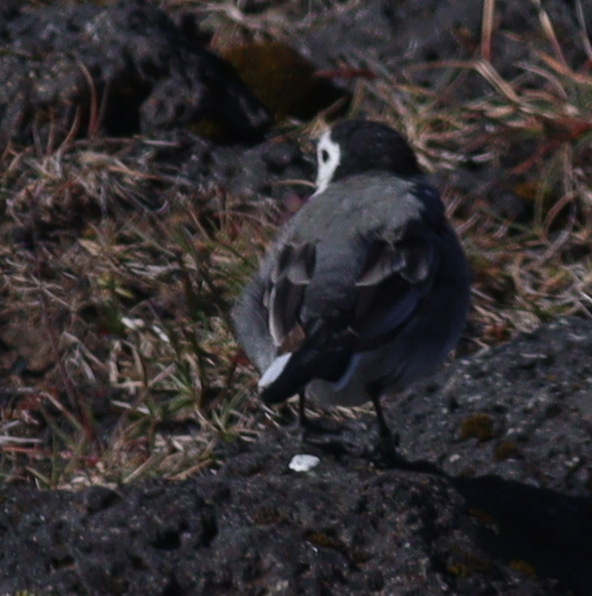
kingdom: Animalia
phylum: Chordata
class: Aves
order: Passeriformes
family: Motacillidae
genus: Motacilla
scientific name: Motacilla alba
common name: White wagtail
